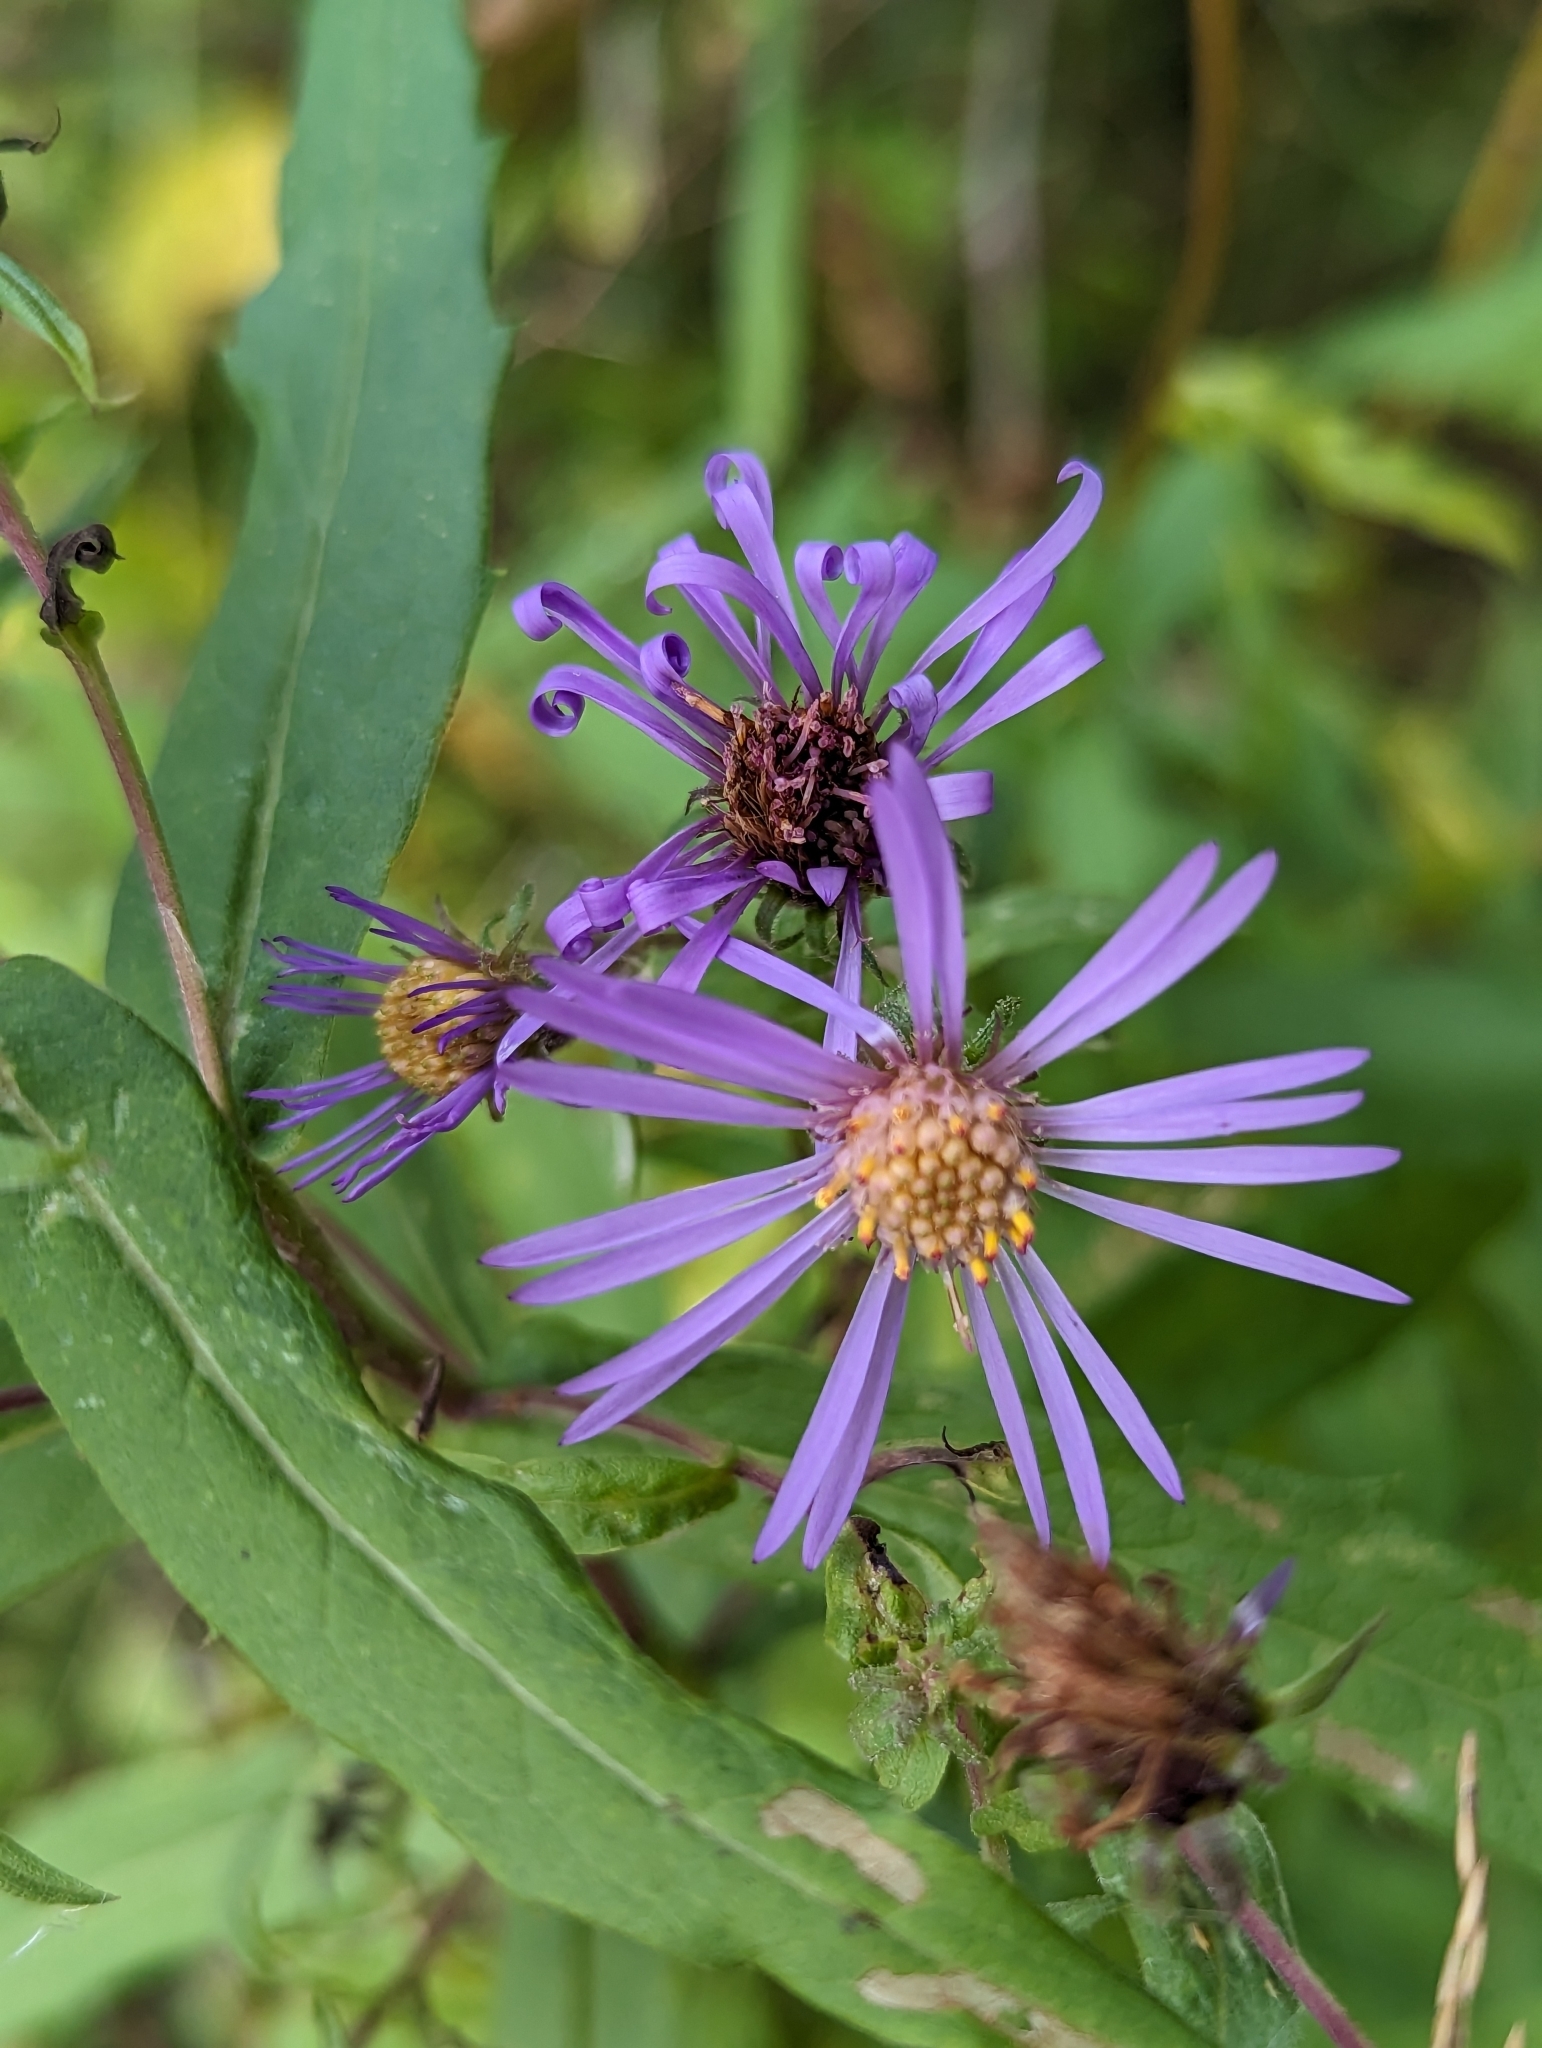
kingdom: Plantae
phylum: Tracheophyta
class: Magnoliopsida
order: Asterales
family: Asteraceae
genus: Eurybia
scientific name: Eurybia conspicua
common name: Showy aster
